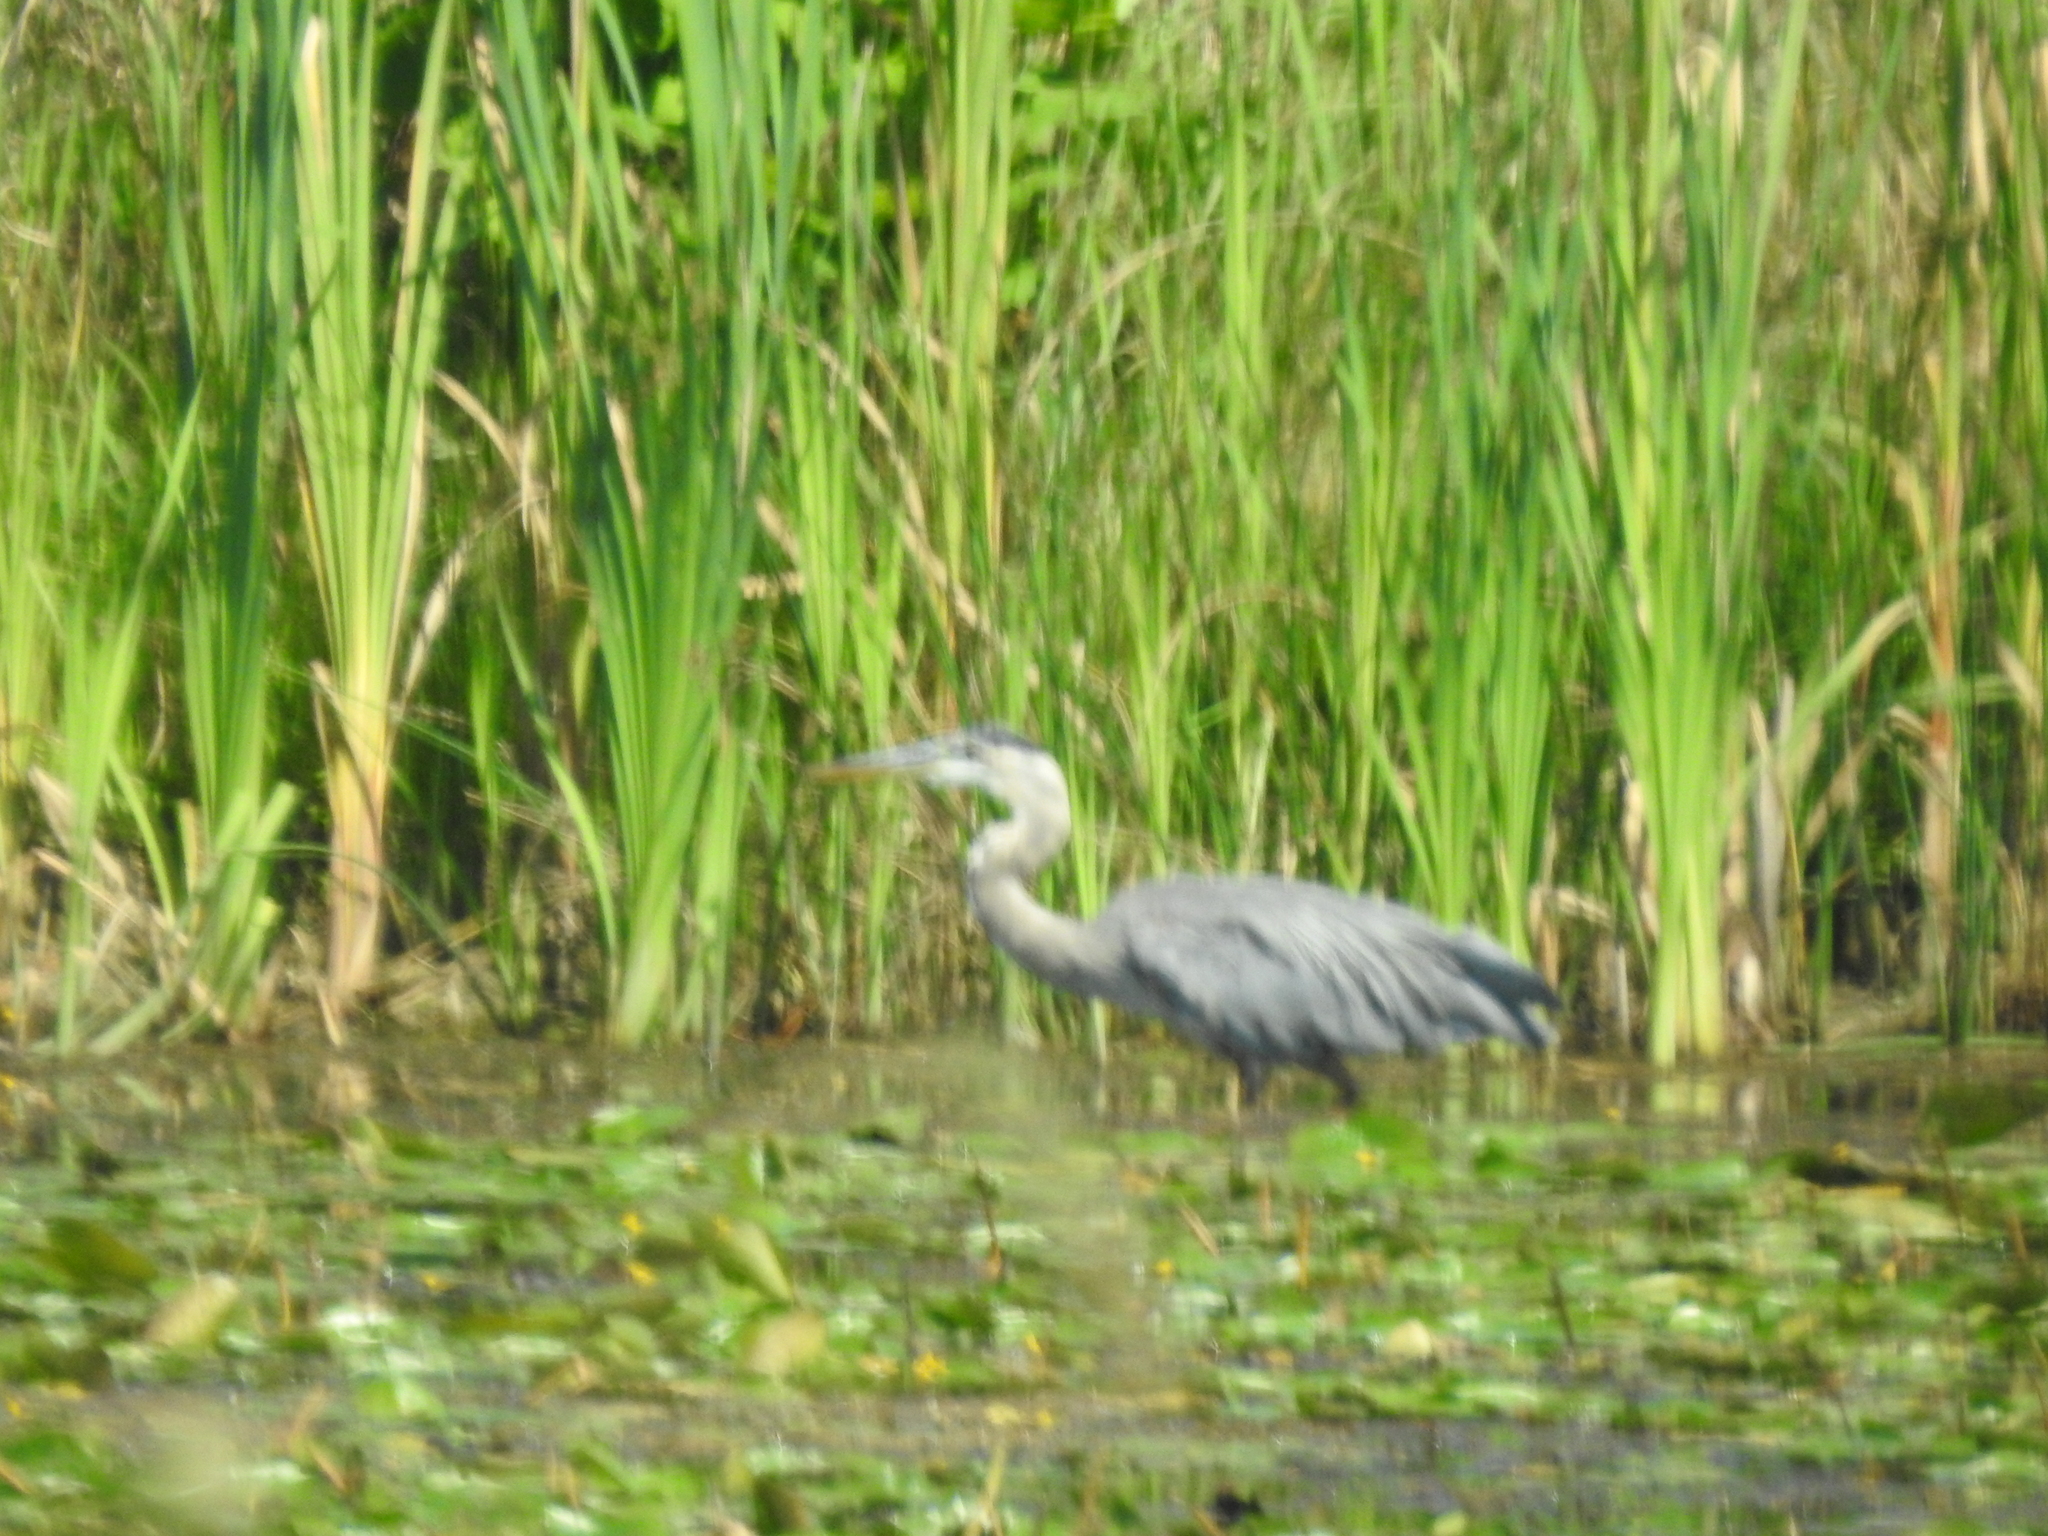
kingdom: Animalia
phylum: Chordata
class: Aves
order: Pelecaniformes
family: Ardeidae
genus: Ardea
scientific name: Ardea herodias
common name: Great blue heron
